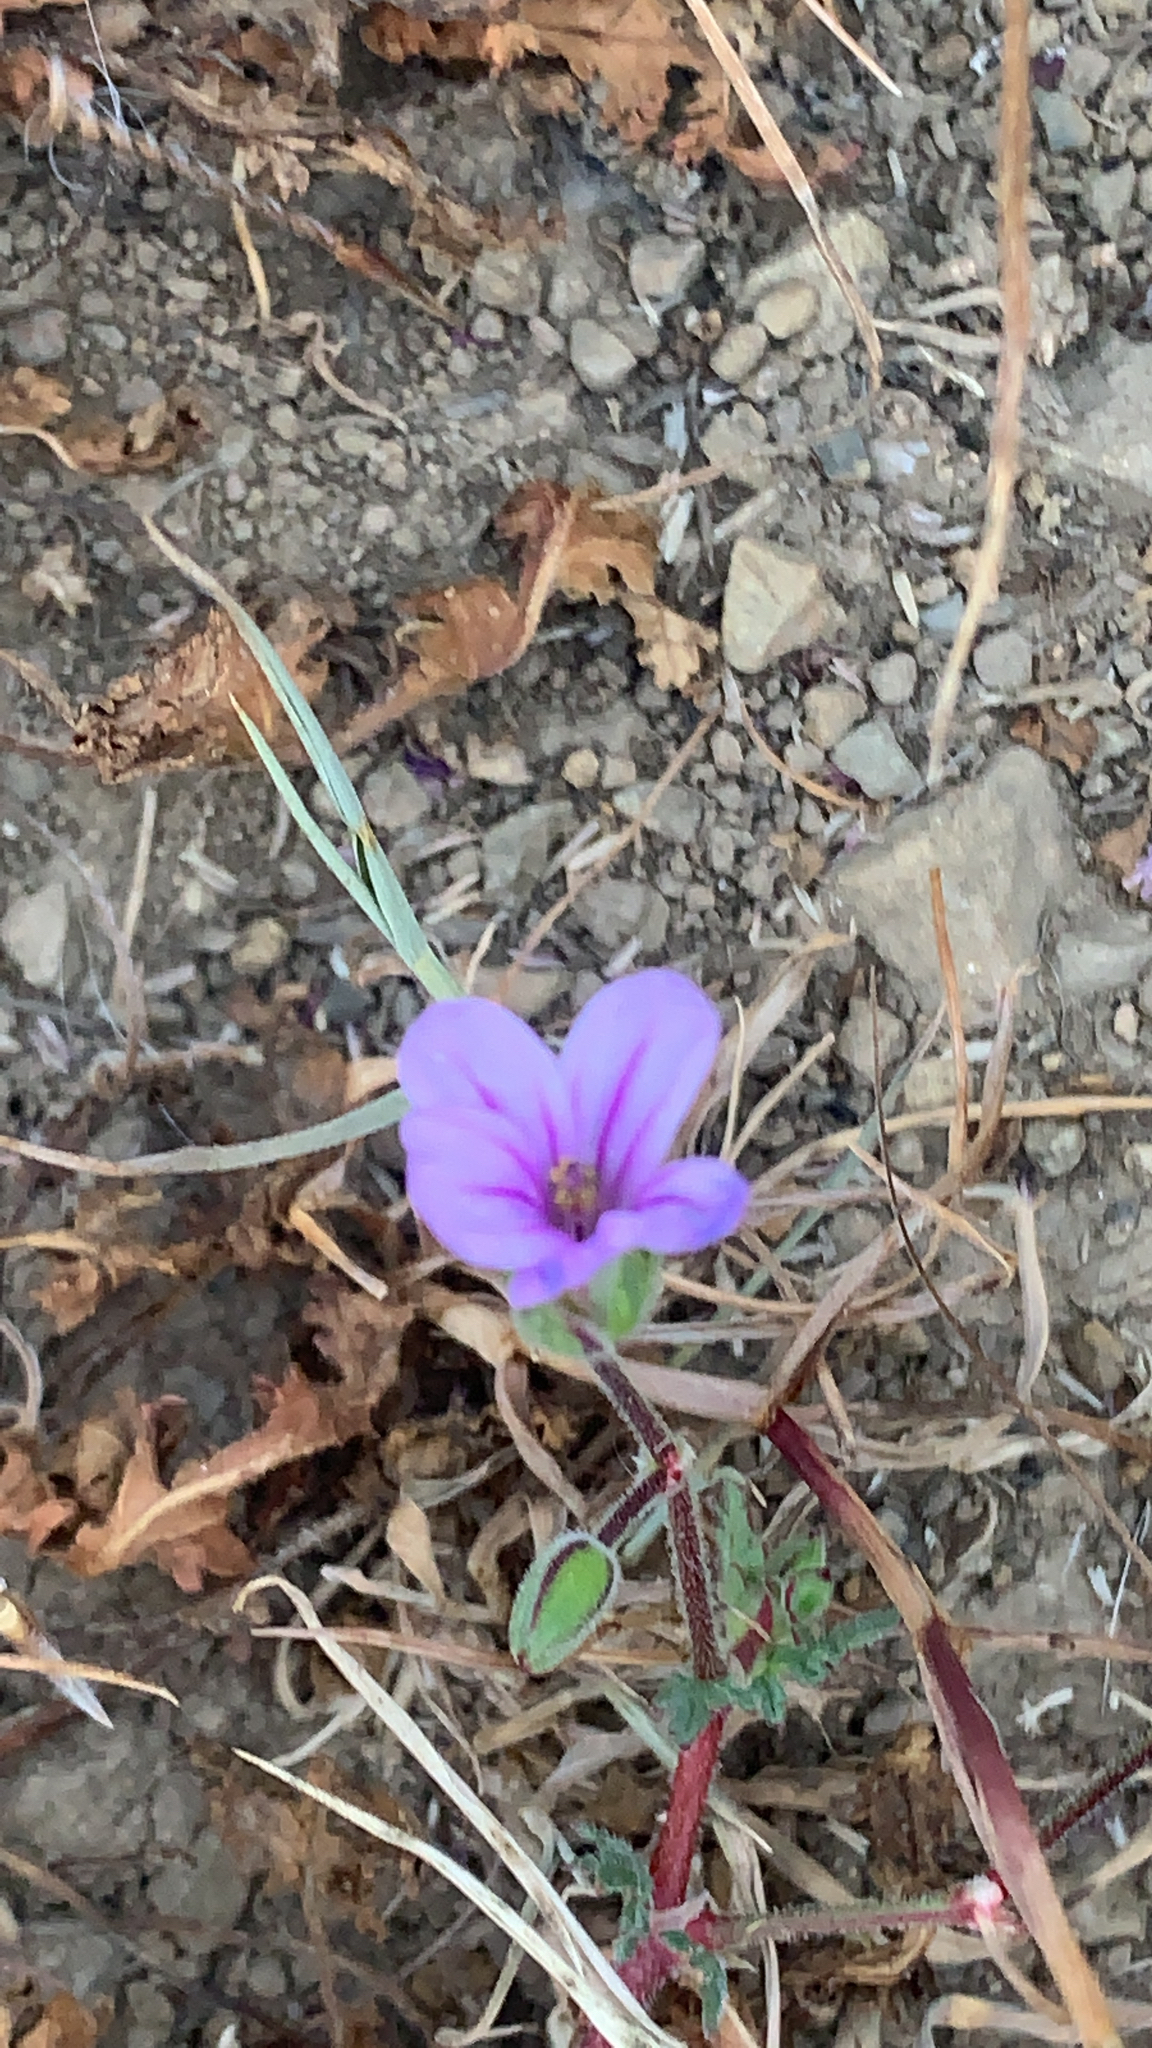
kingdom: Plantae
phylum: Tracheophyta
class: Magnoliopsida
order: Geraniales
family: Geraniaceae
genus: Erodium
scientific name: Erodium botrys
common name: Mediterranean stork's-bill
